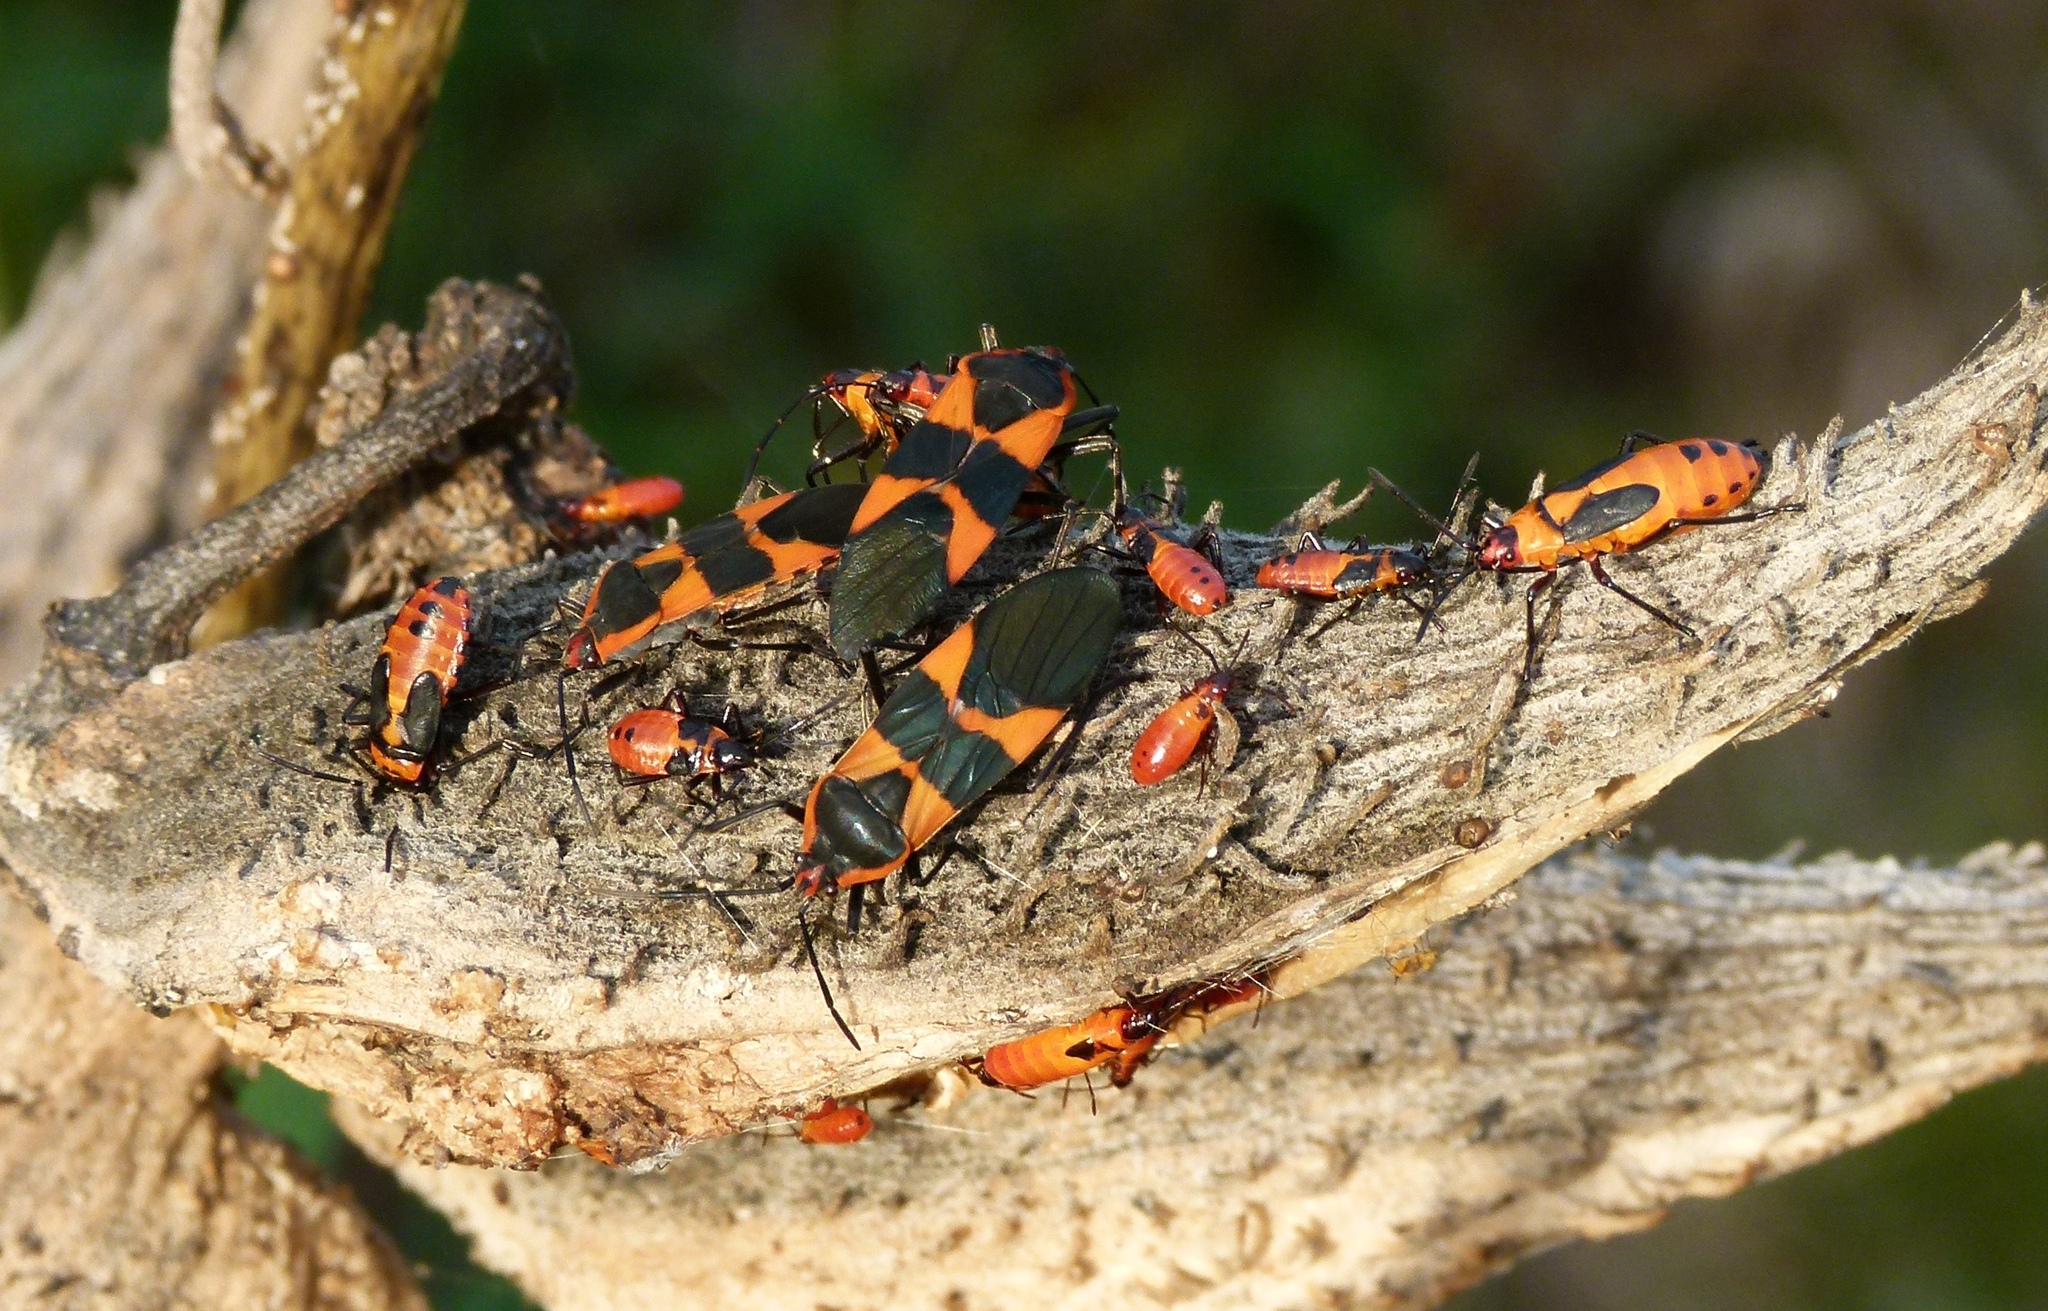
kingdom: Animalia
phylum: Arthropoda
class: Insecta
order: Hemiptera
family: Lygaeidae
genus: Oncopeltus
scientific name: Oncopeltus fasciatus
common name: Large milkweed bug
